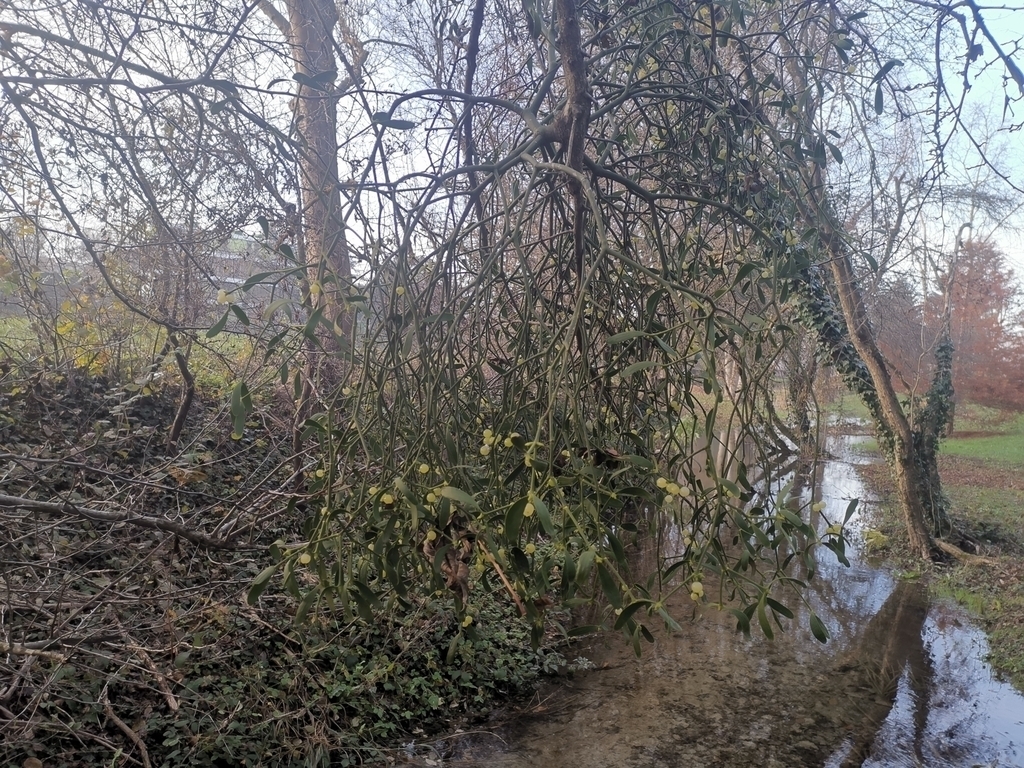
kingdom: Plantae
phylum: Tracheophyta
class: Magnoliopsida
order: Santalales
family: Viscaceae
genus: Viscum
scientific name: Viscum album
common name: Mistletoe
